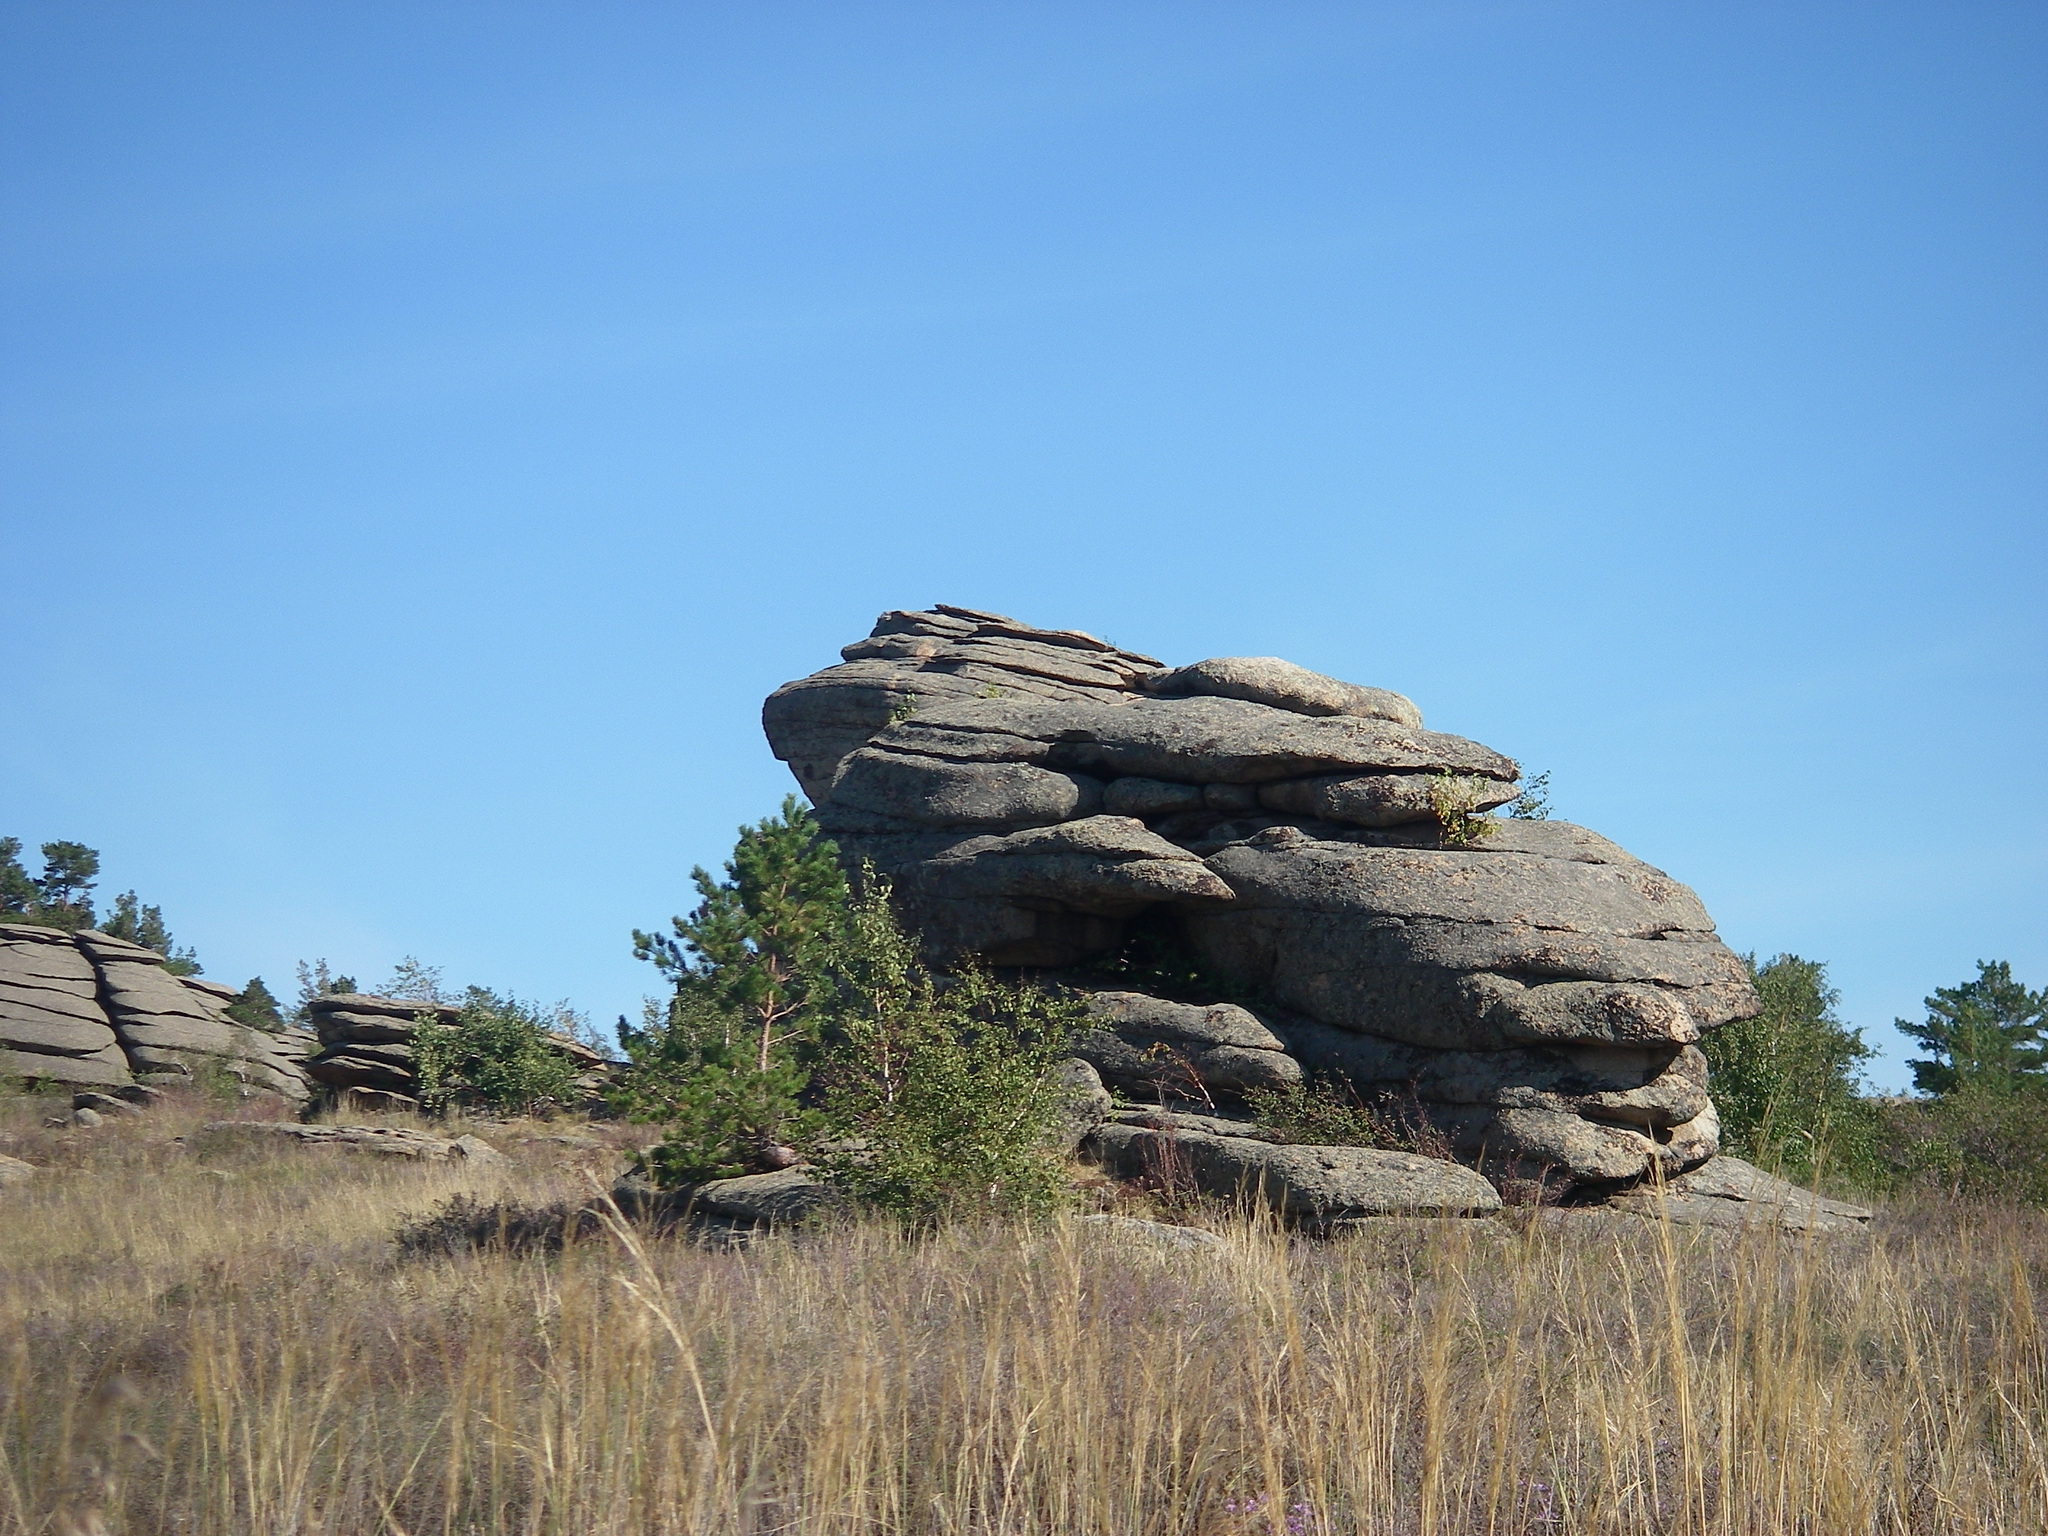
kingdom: Plantae
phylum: Tracheophyta
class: Pinopsida
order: Pinales
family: Pinaceae
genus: Pinus
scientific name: Pinus sylvestris
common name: Scots pine
